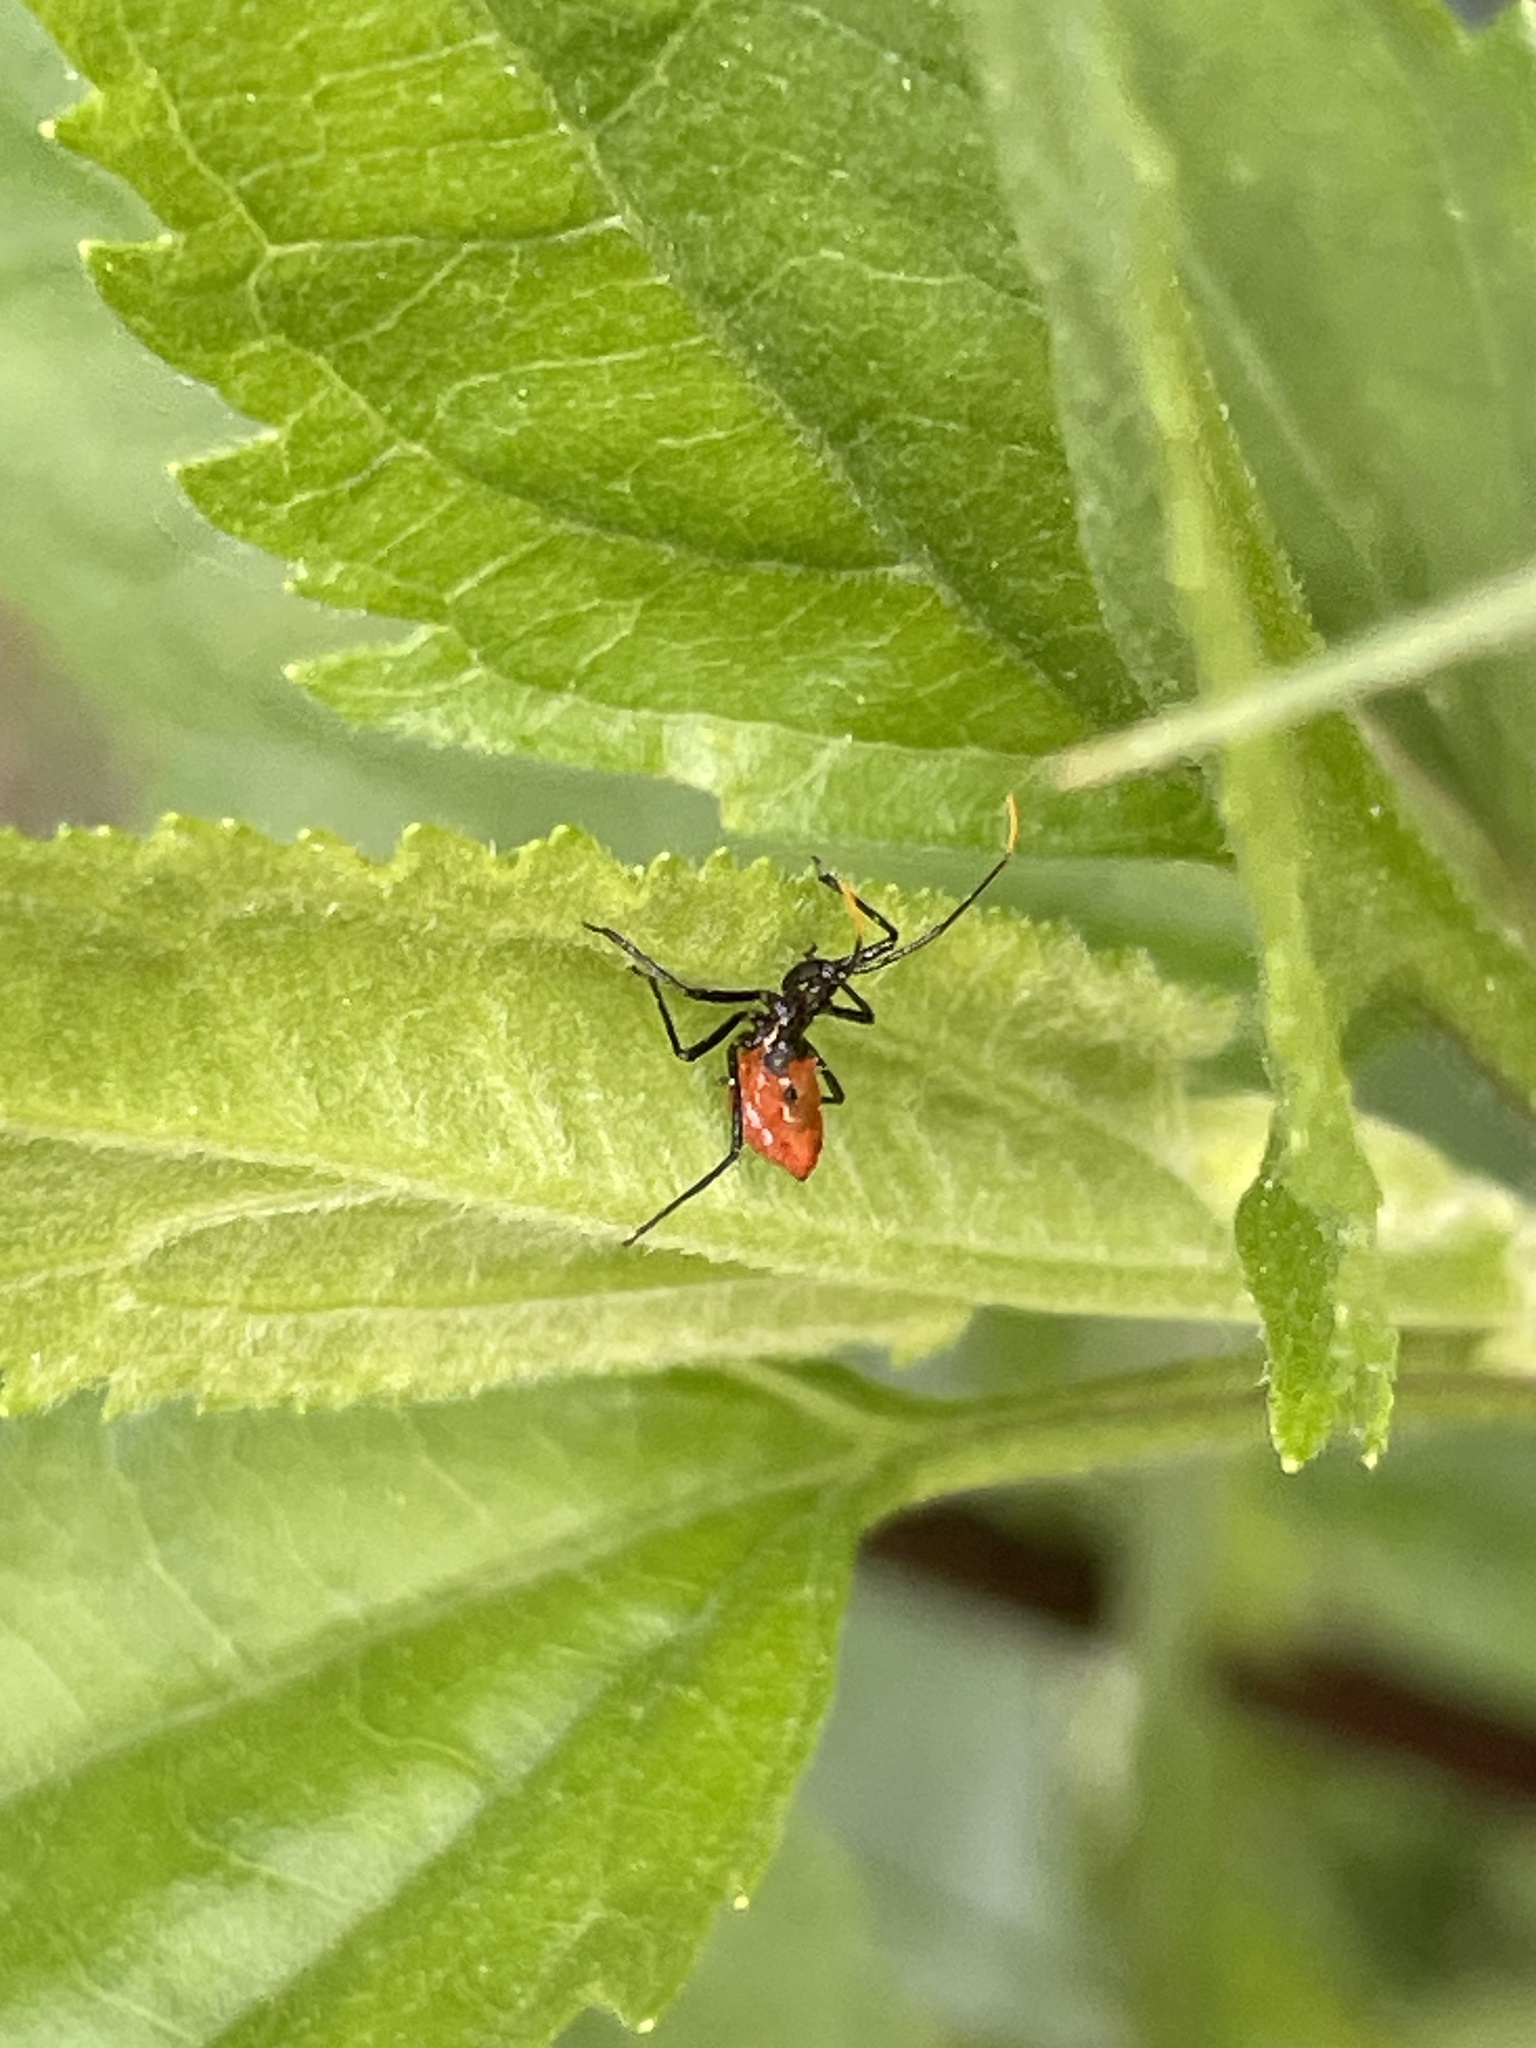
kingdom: Animalia
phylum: Arthropoda
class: Insecta
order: Hemiptera
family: Reduviidae
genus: Arilus
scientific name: Arilus cristatus
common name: North american wheel bug
